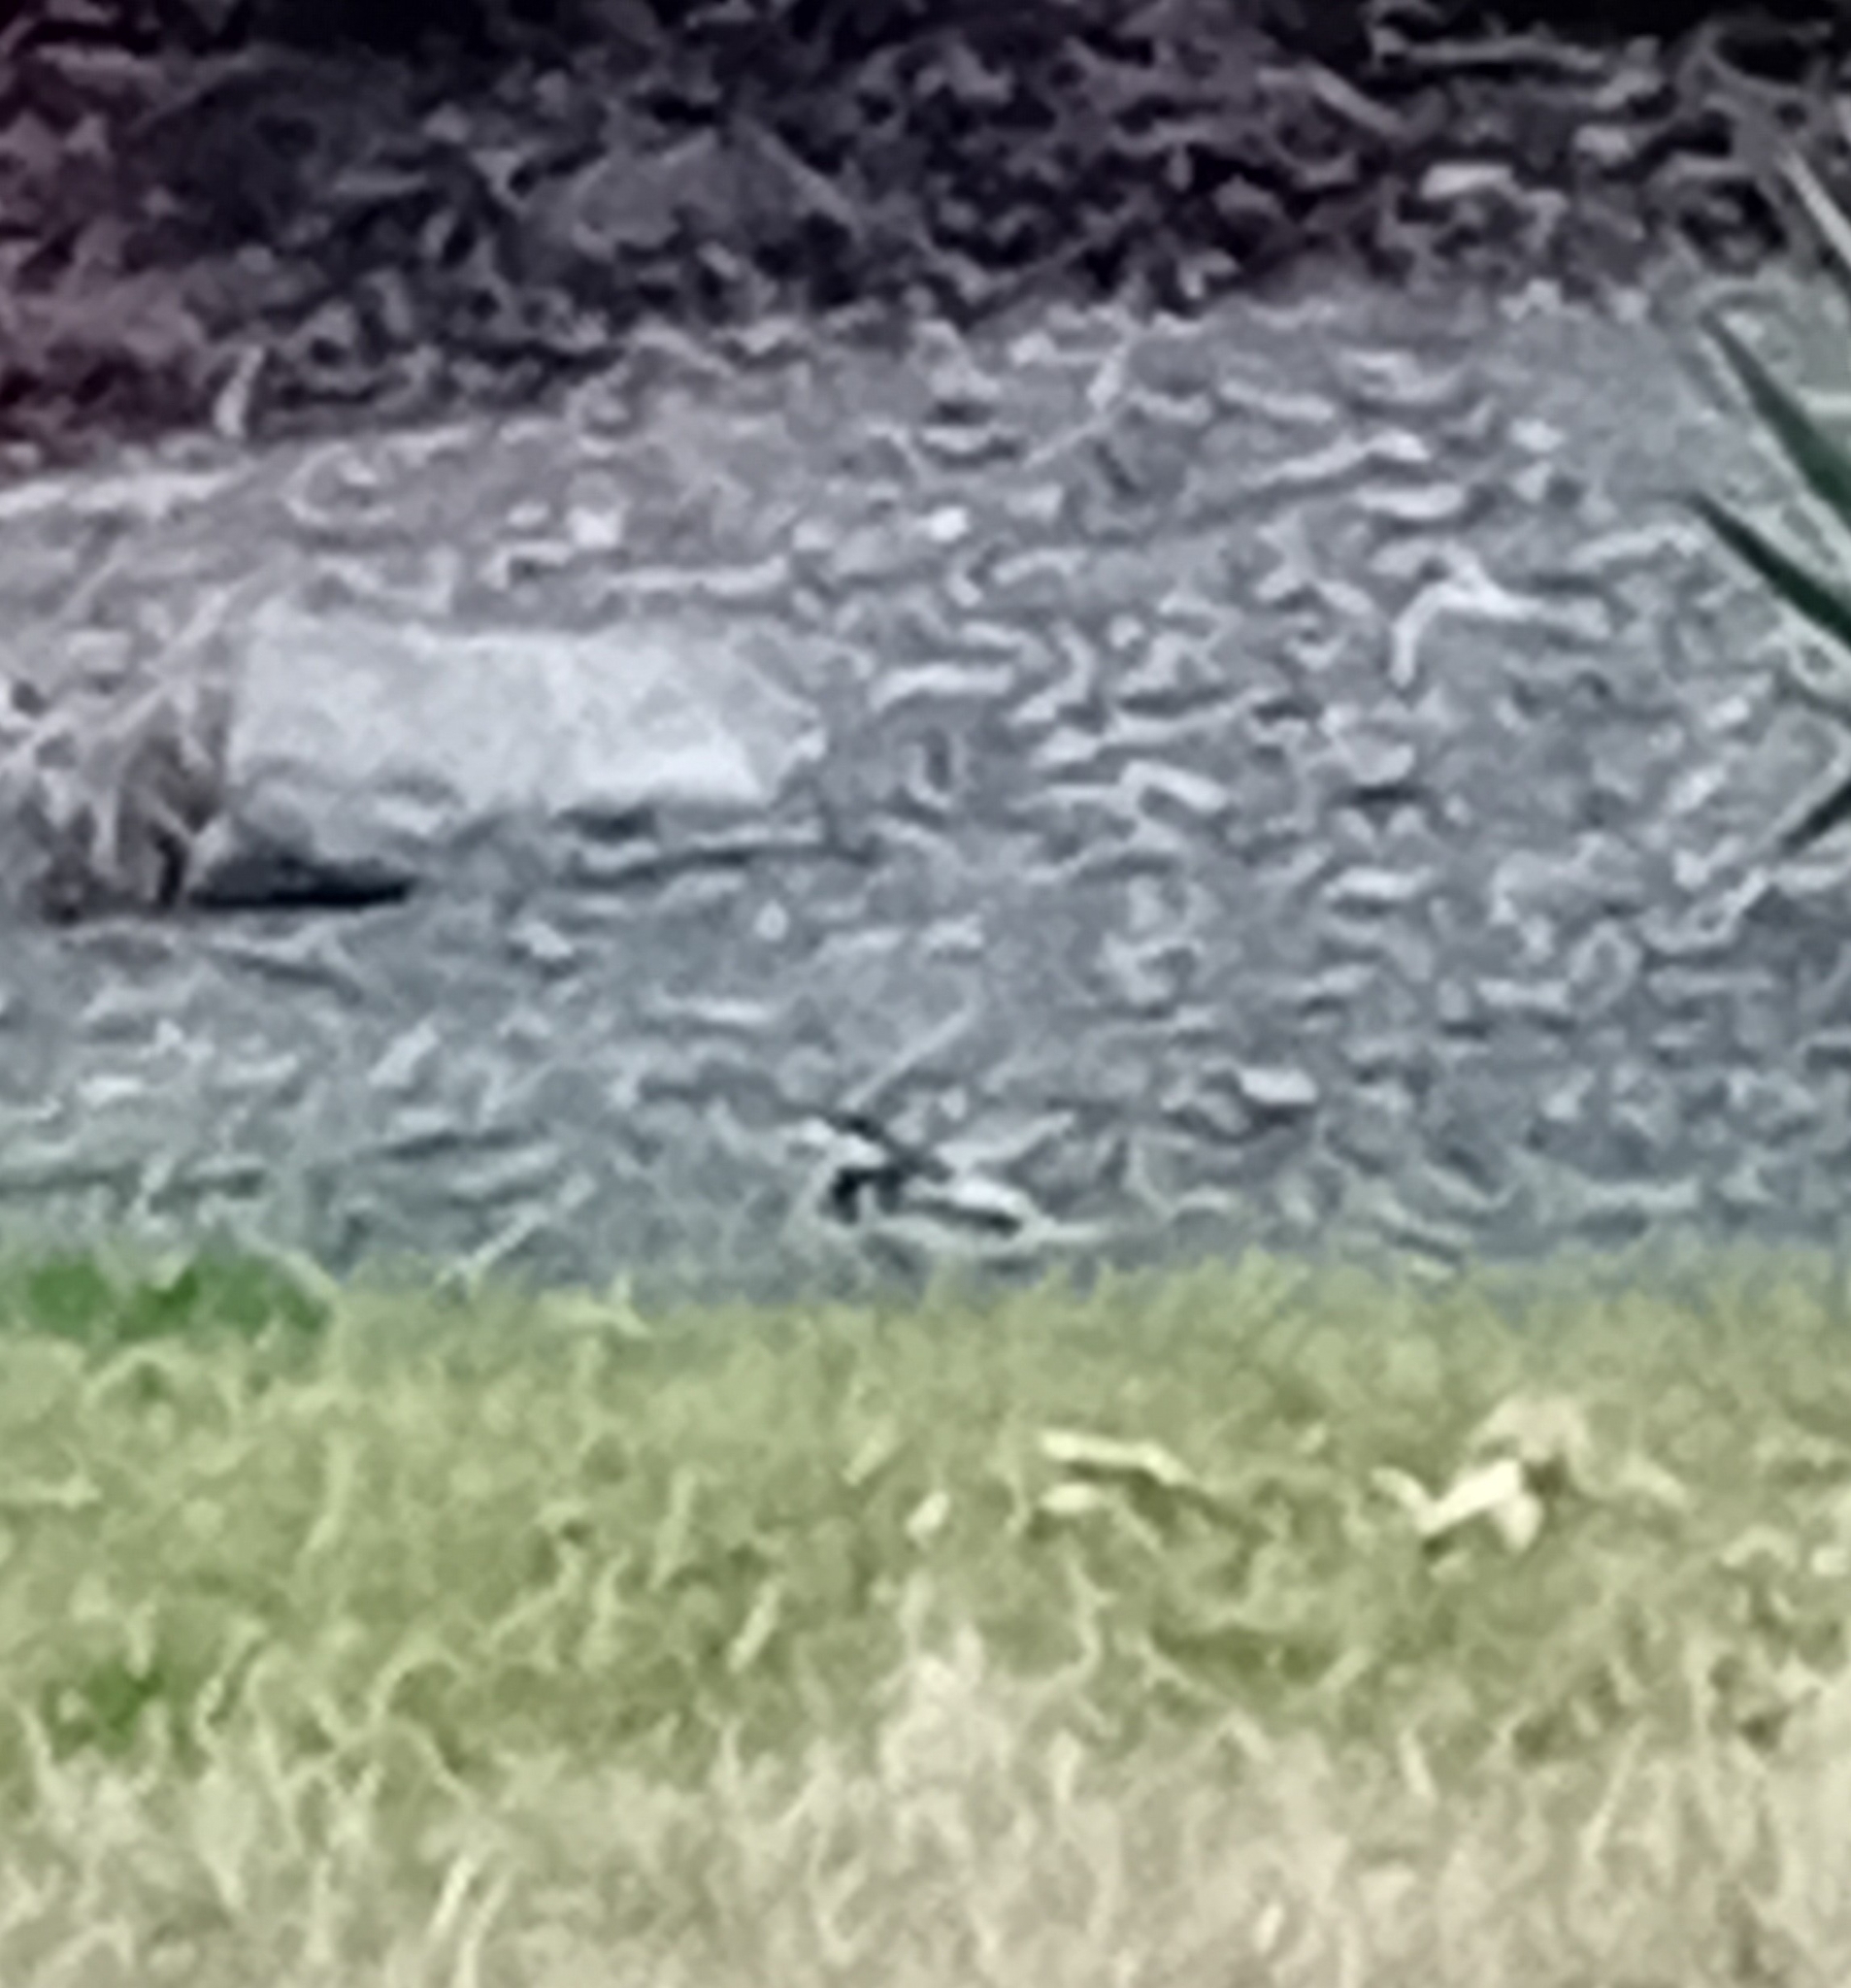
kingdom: Animalia
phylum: Chordata
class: Aves
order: Passeriformes
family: Motacillidae
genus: Motacilla
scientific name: Motacilla alba
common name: White wagtail
